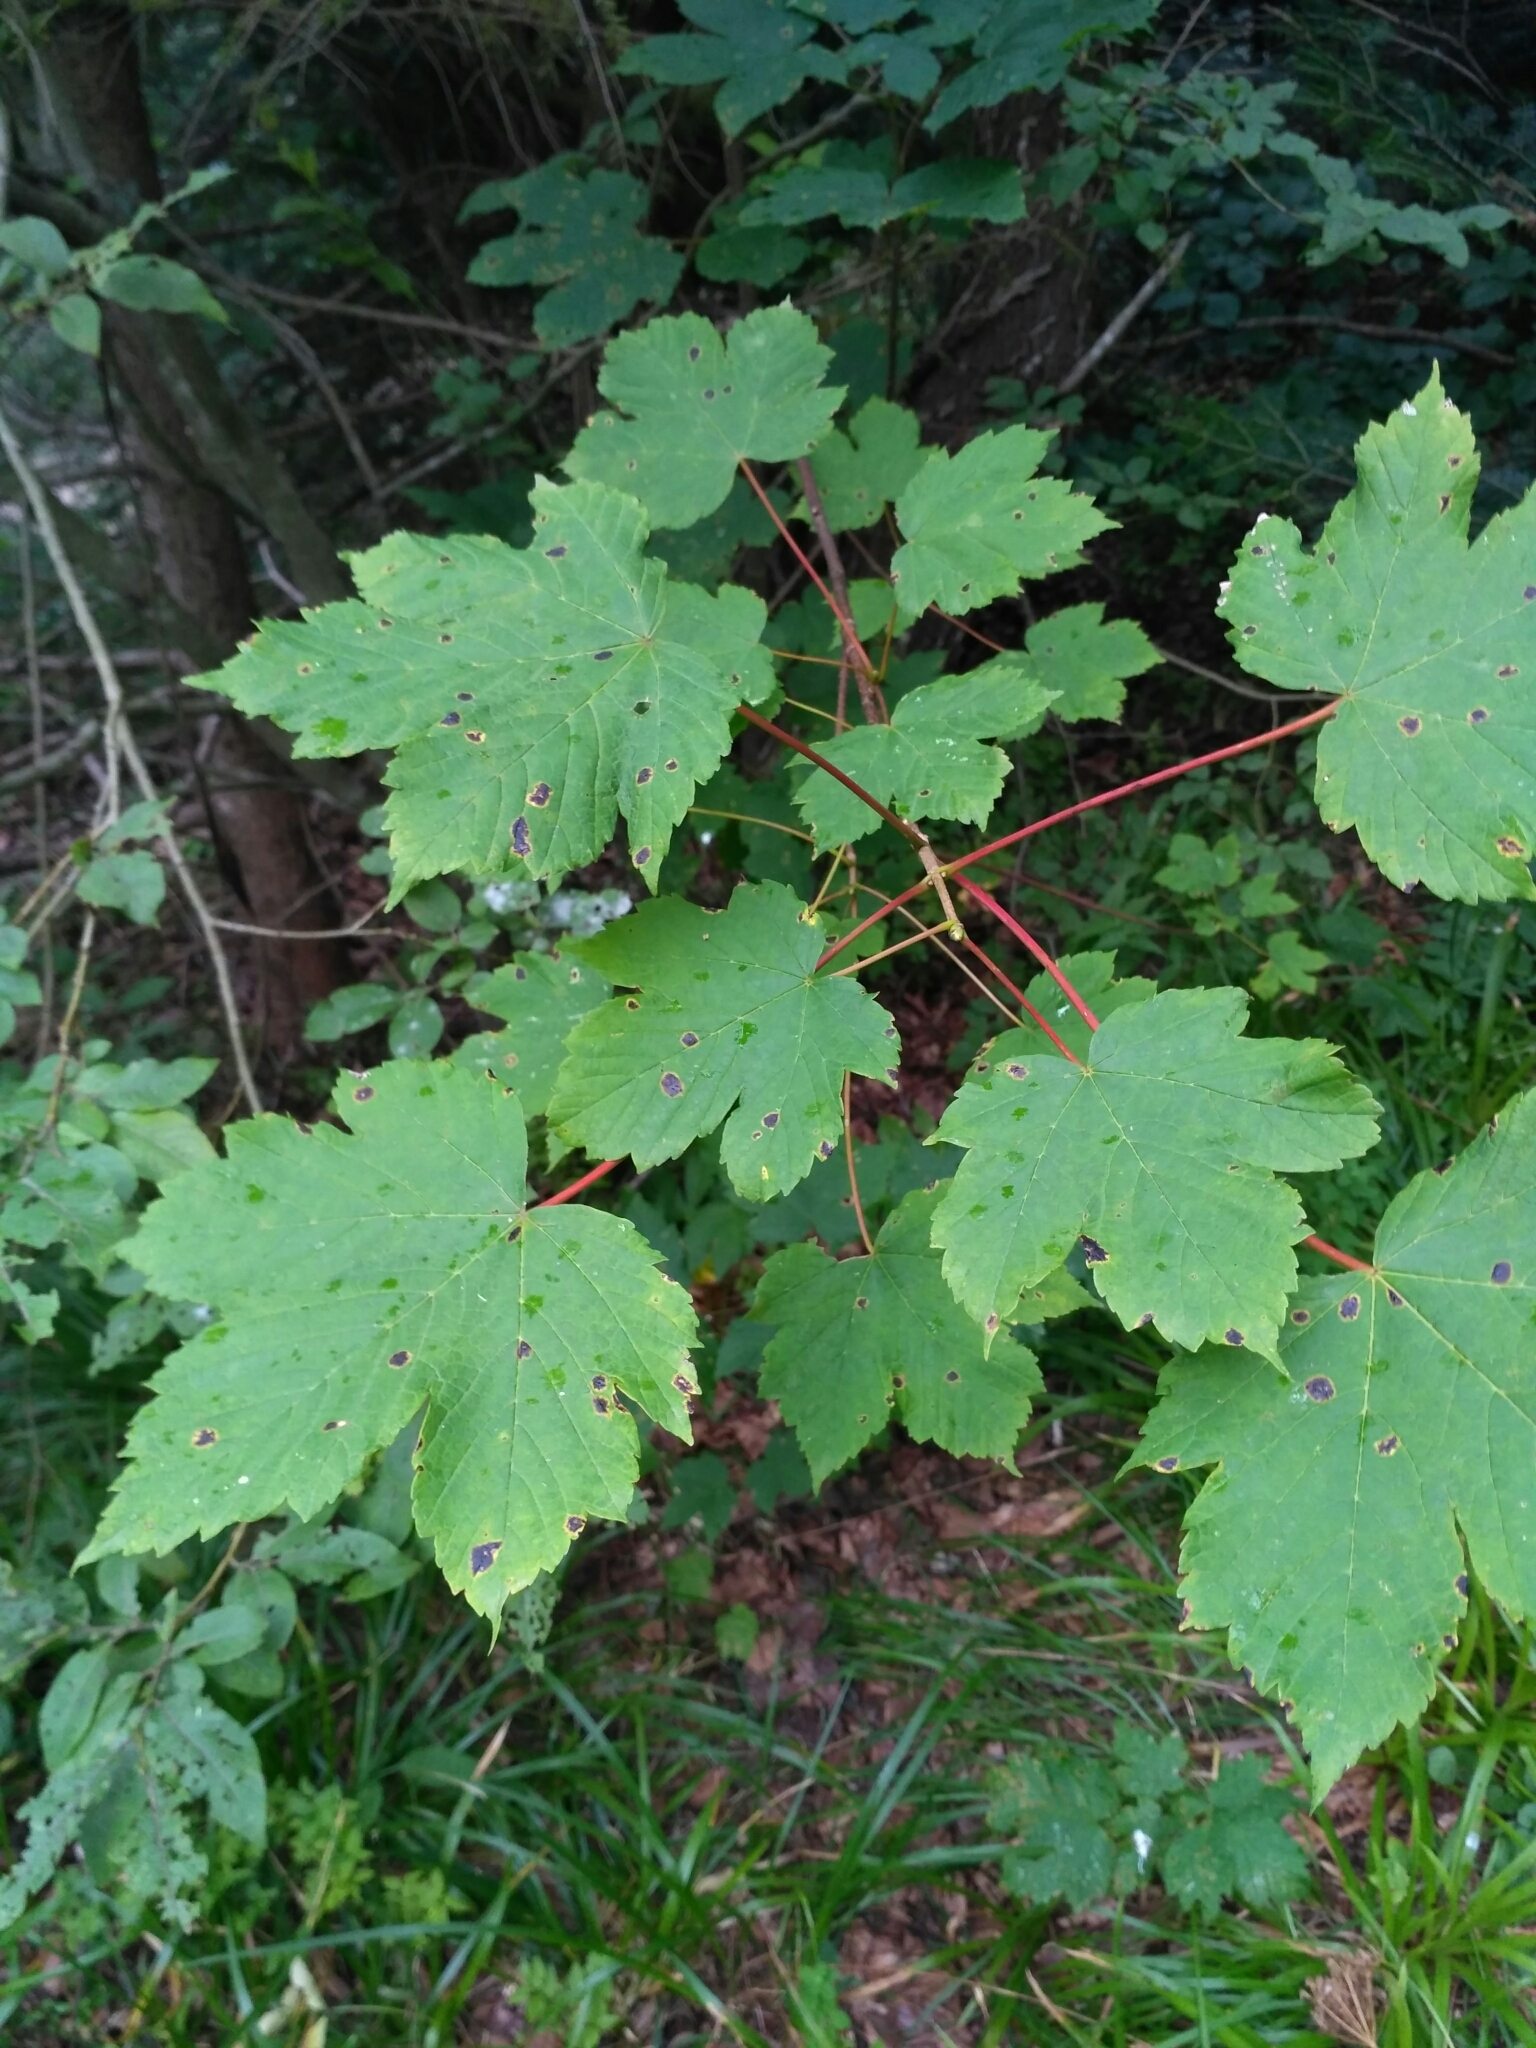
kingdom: Plantae
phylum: Tracheophyta
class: Magnoliopsida
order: Sapindales
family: Sapindaceae
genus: Acer
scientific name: Acer pseudoplatanus
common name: Sycamore
